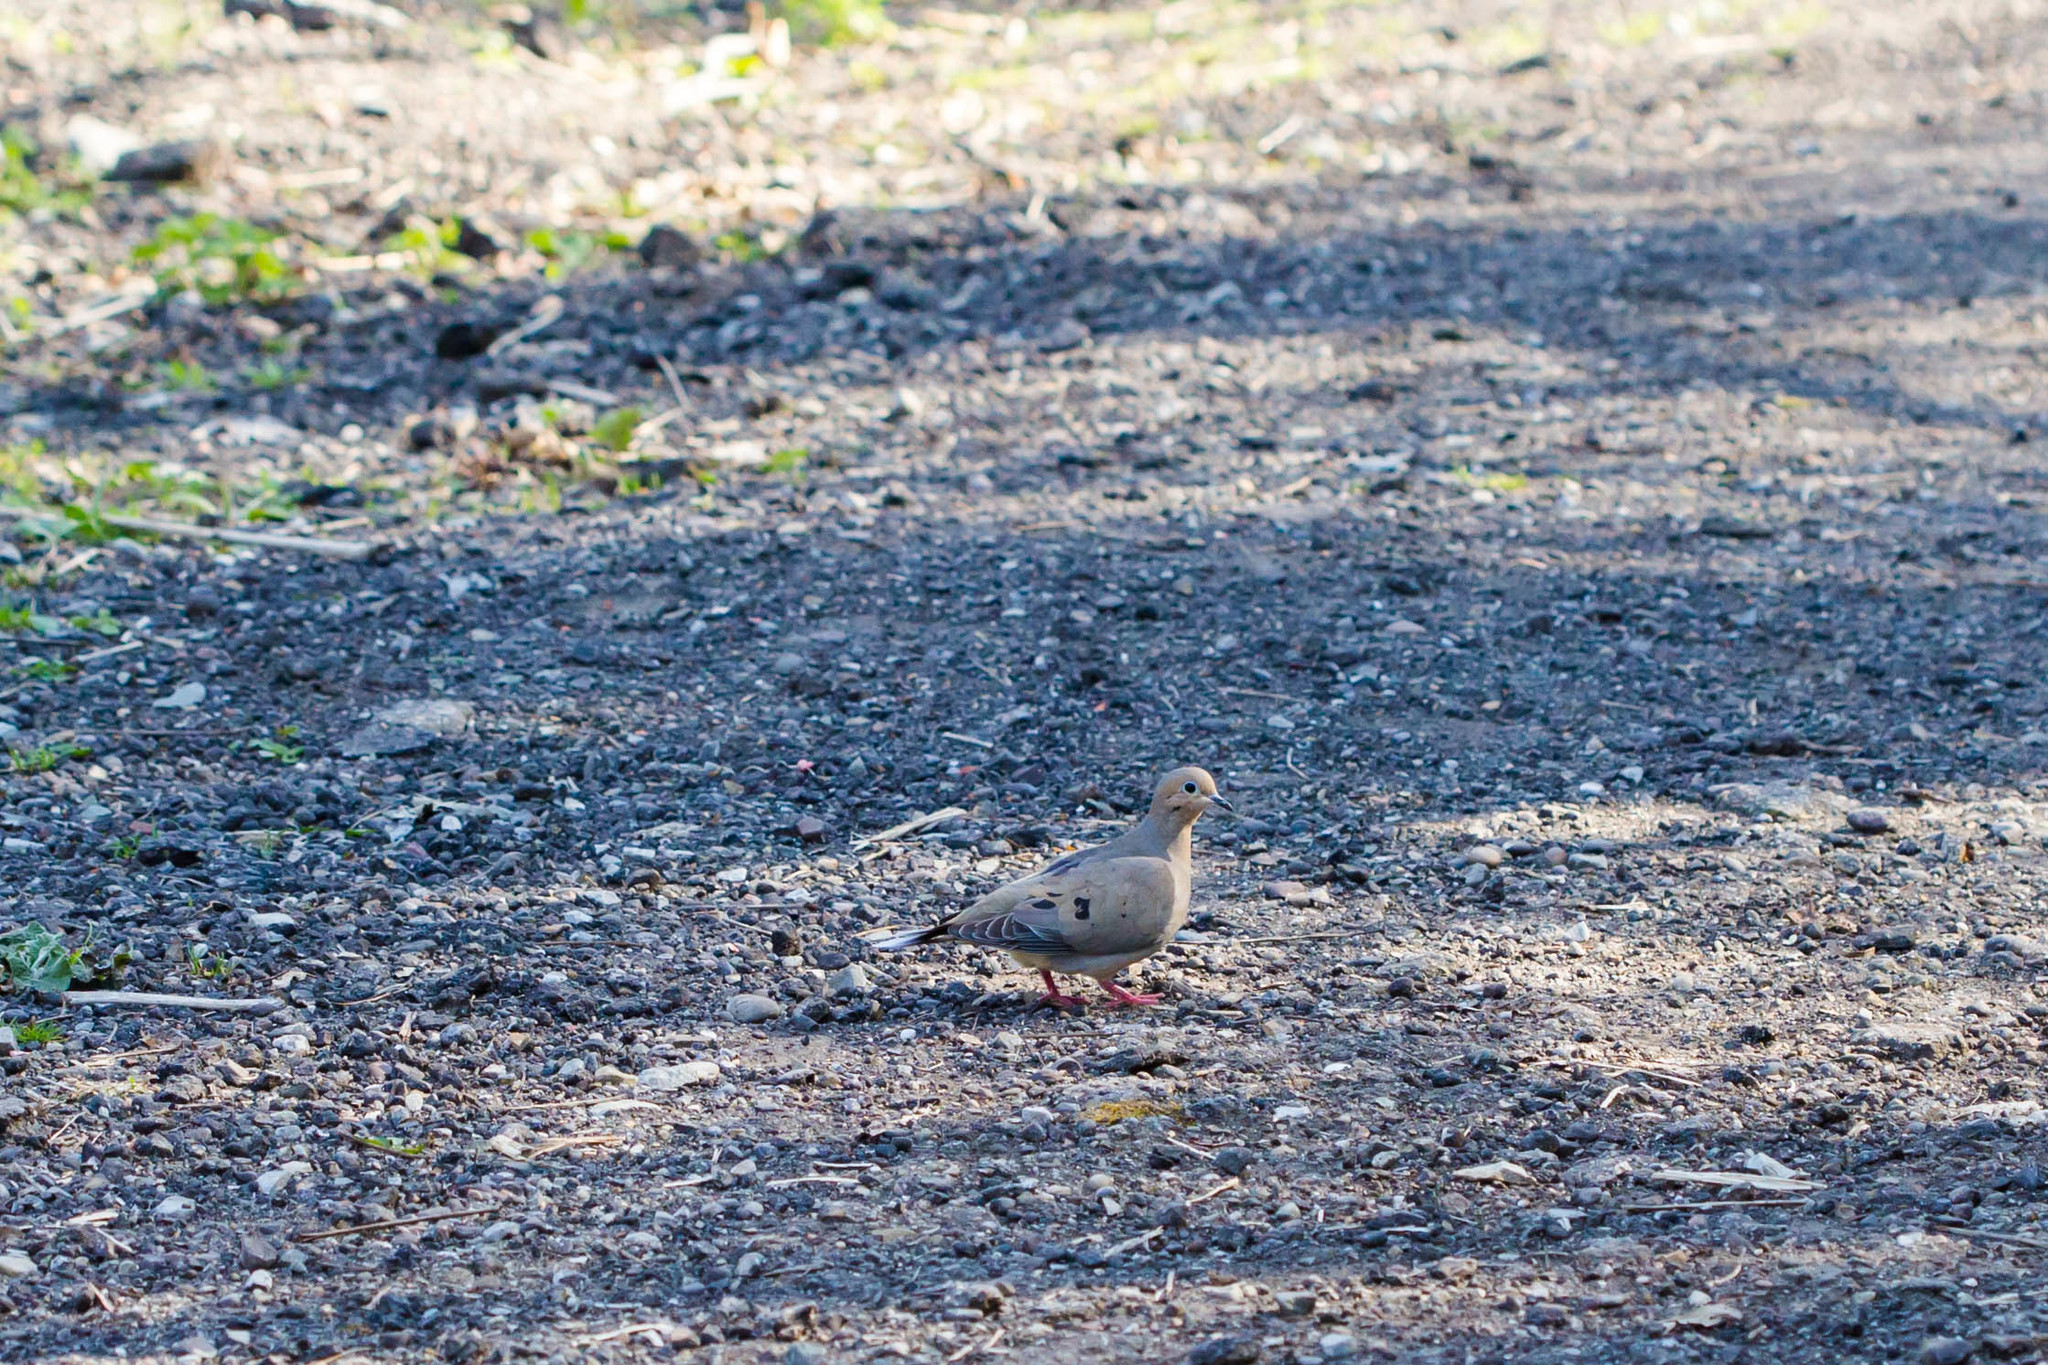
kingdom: Animalia
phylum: Chordata
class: Aves
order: Columbiformes
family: Columbidae
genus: Zenaida
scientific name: Zenaida macroura
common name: Mourning dove
